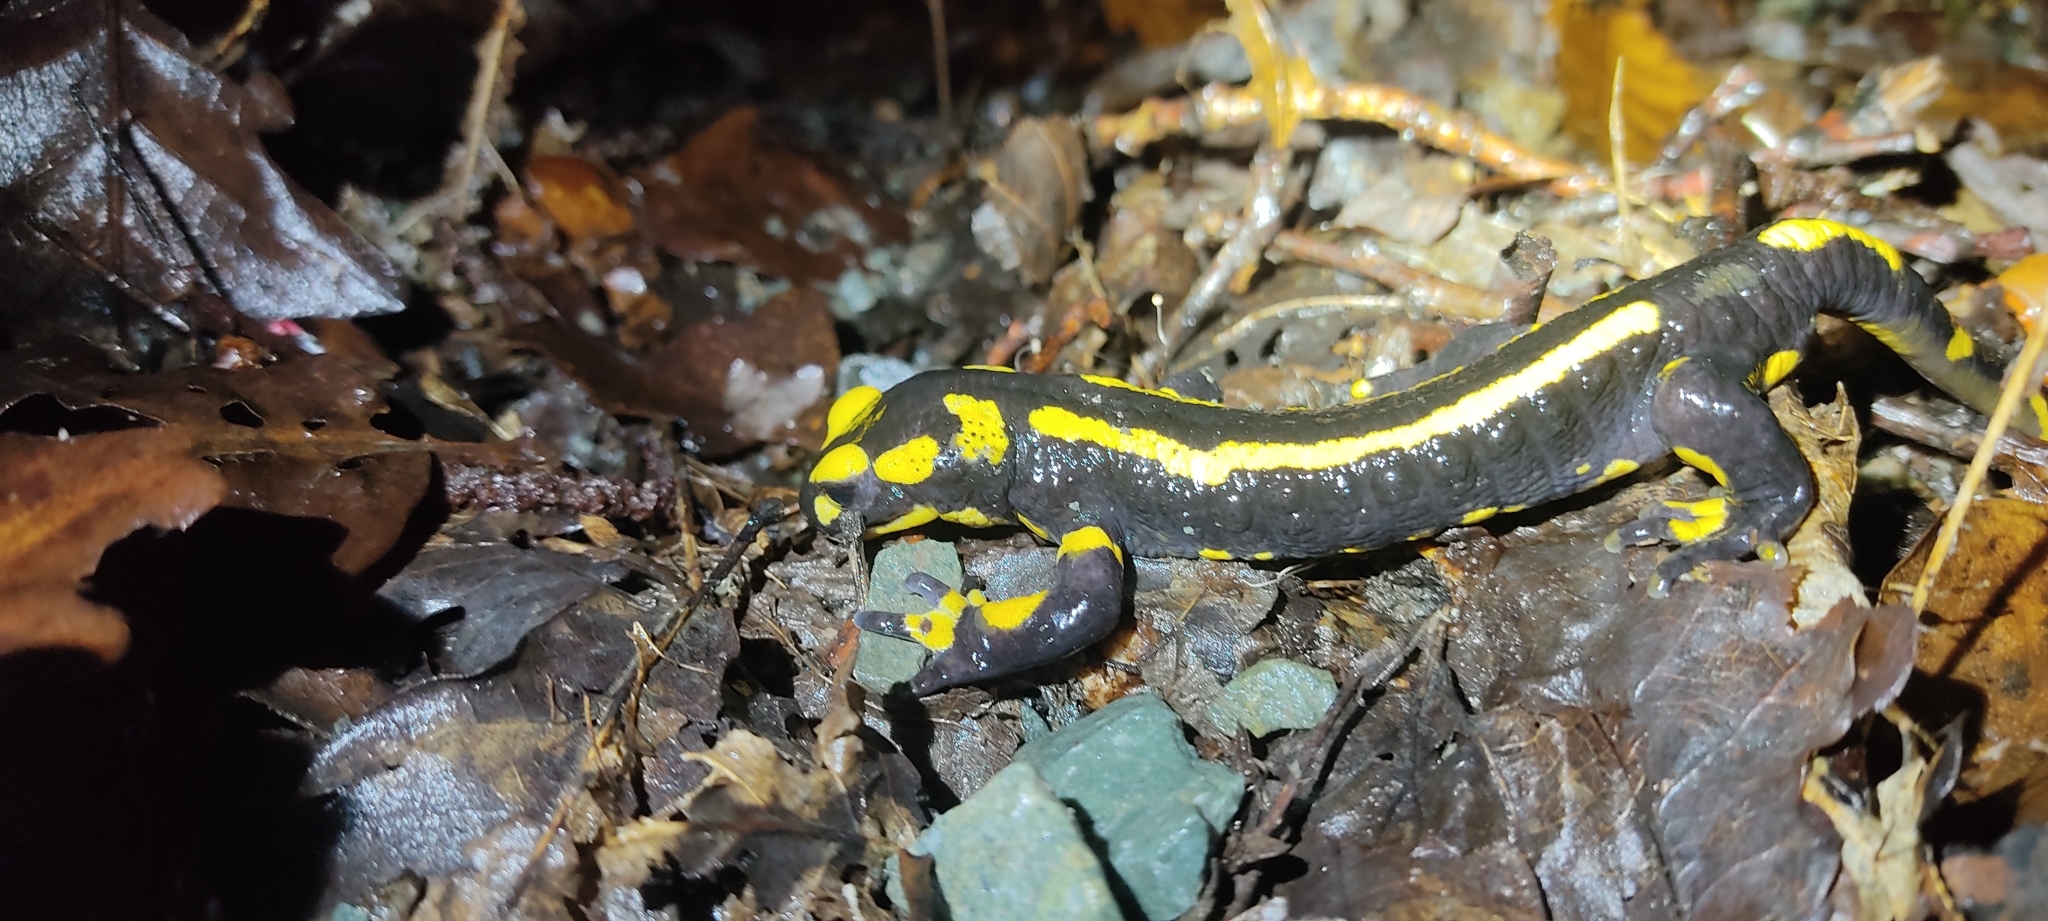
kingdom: Animalia
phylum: Chordata
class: Amphibia
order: Caudata
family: Salamandridae
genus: Salamandra
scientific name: Salamandra salamandra
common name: Fire salamander
